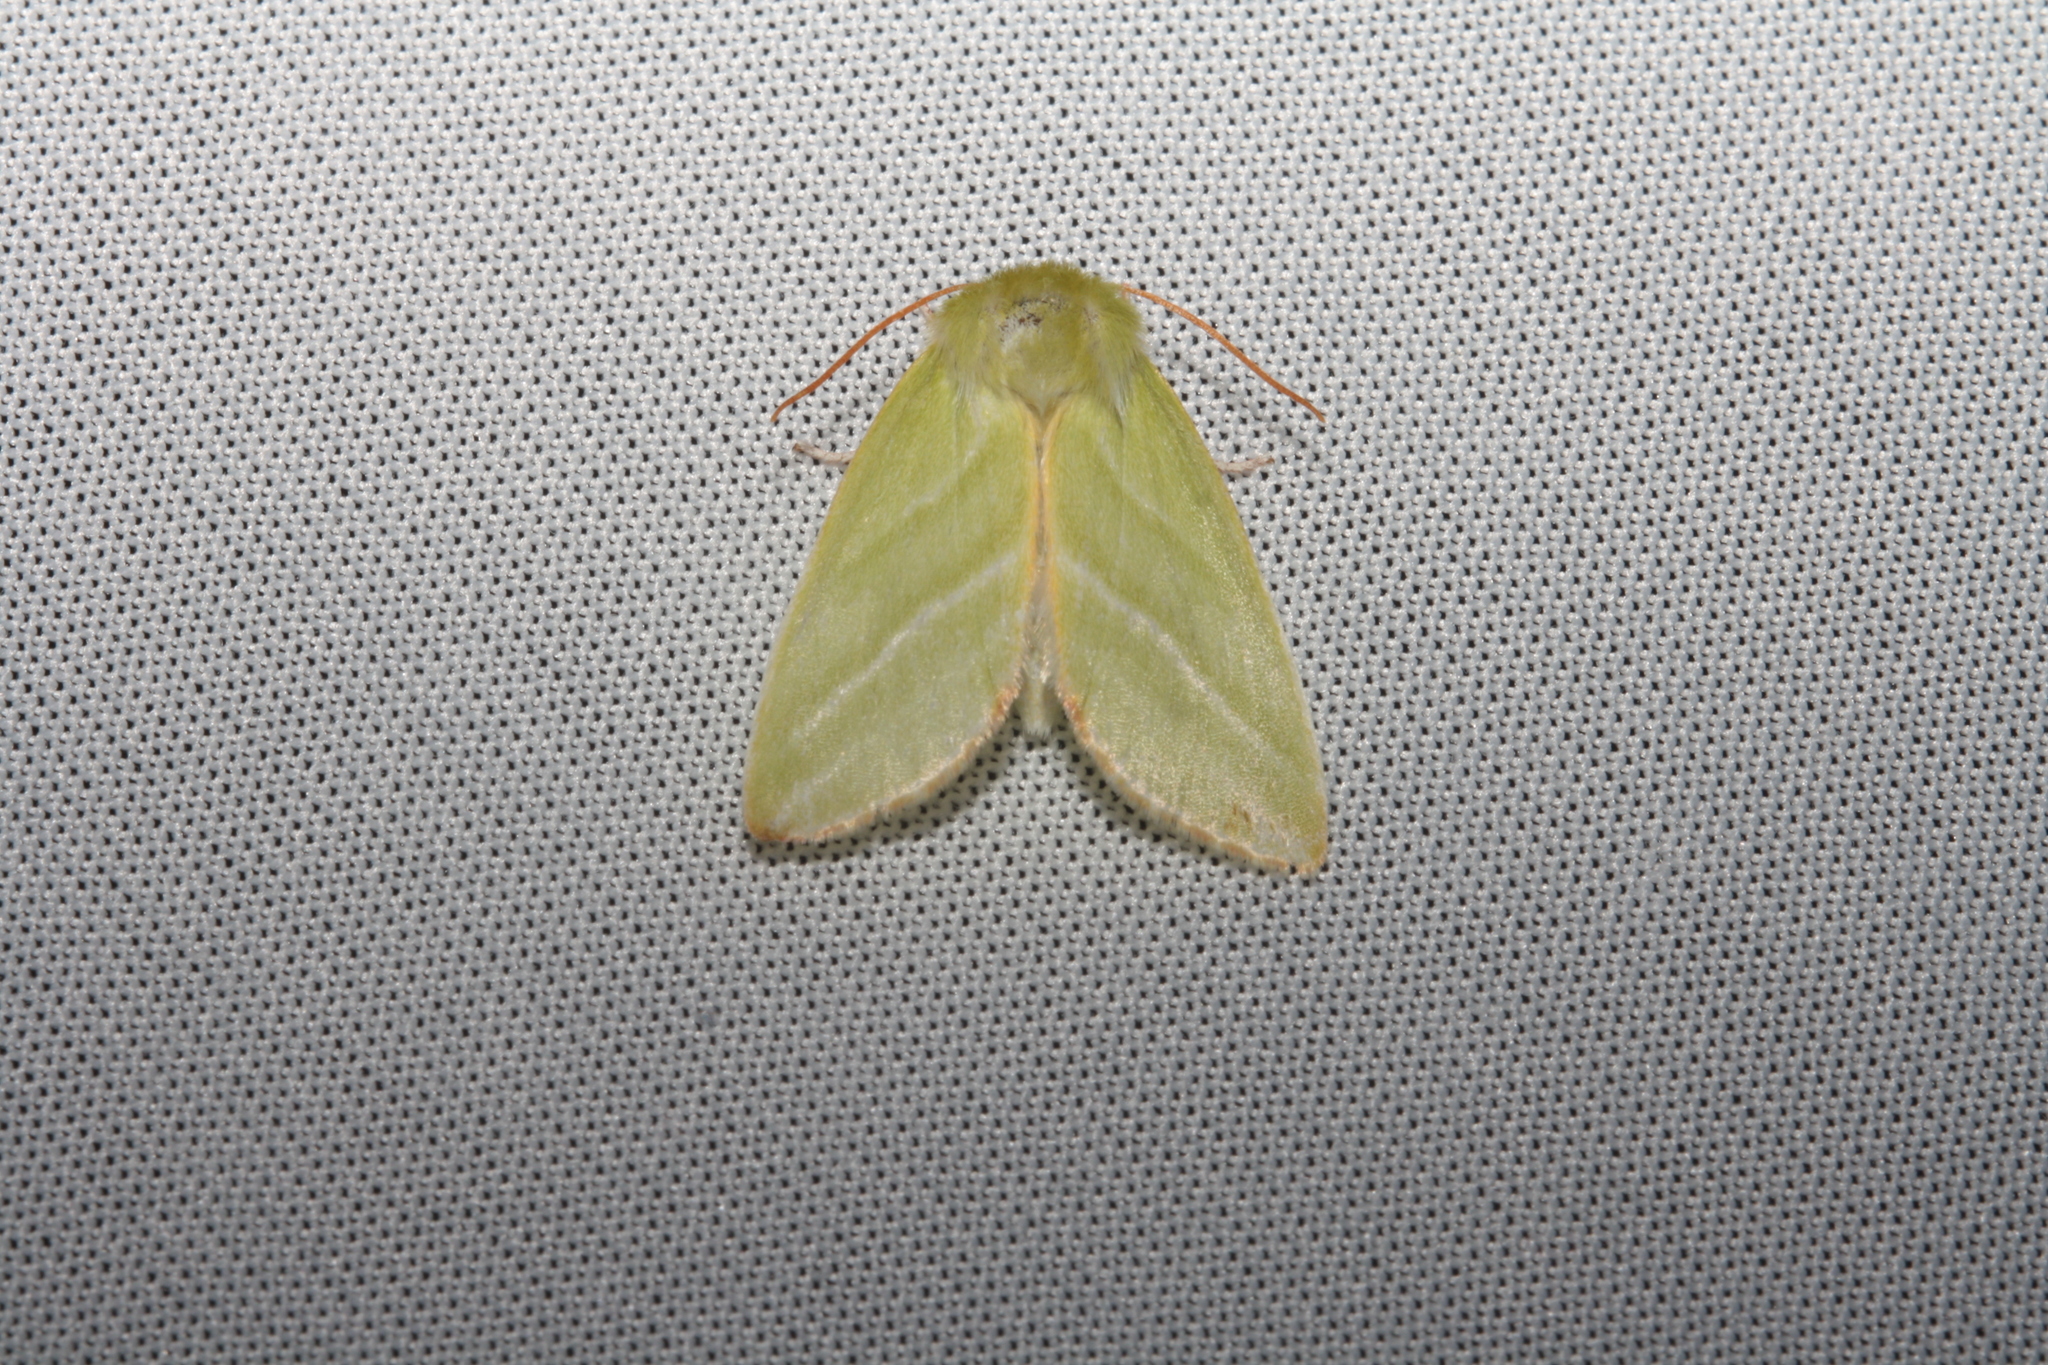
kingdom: Animalia
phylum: Arthropoda
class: Insecta
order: Lepidoptera
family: Nolidae
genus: Pseudoips
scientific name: Pseudoips prasinana
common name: Green silver-lines
